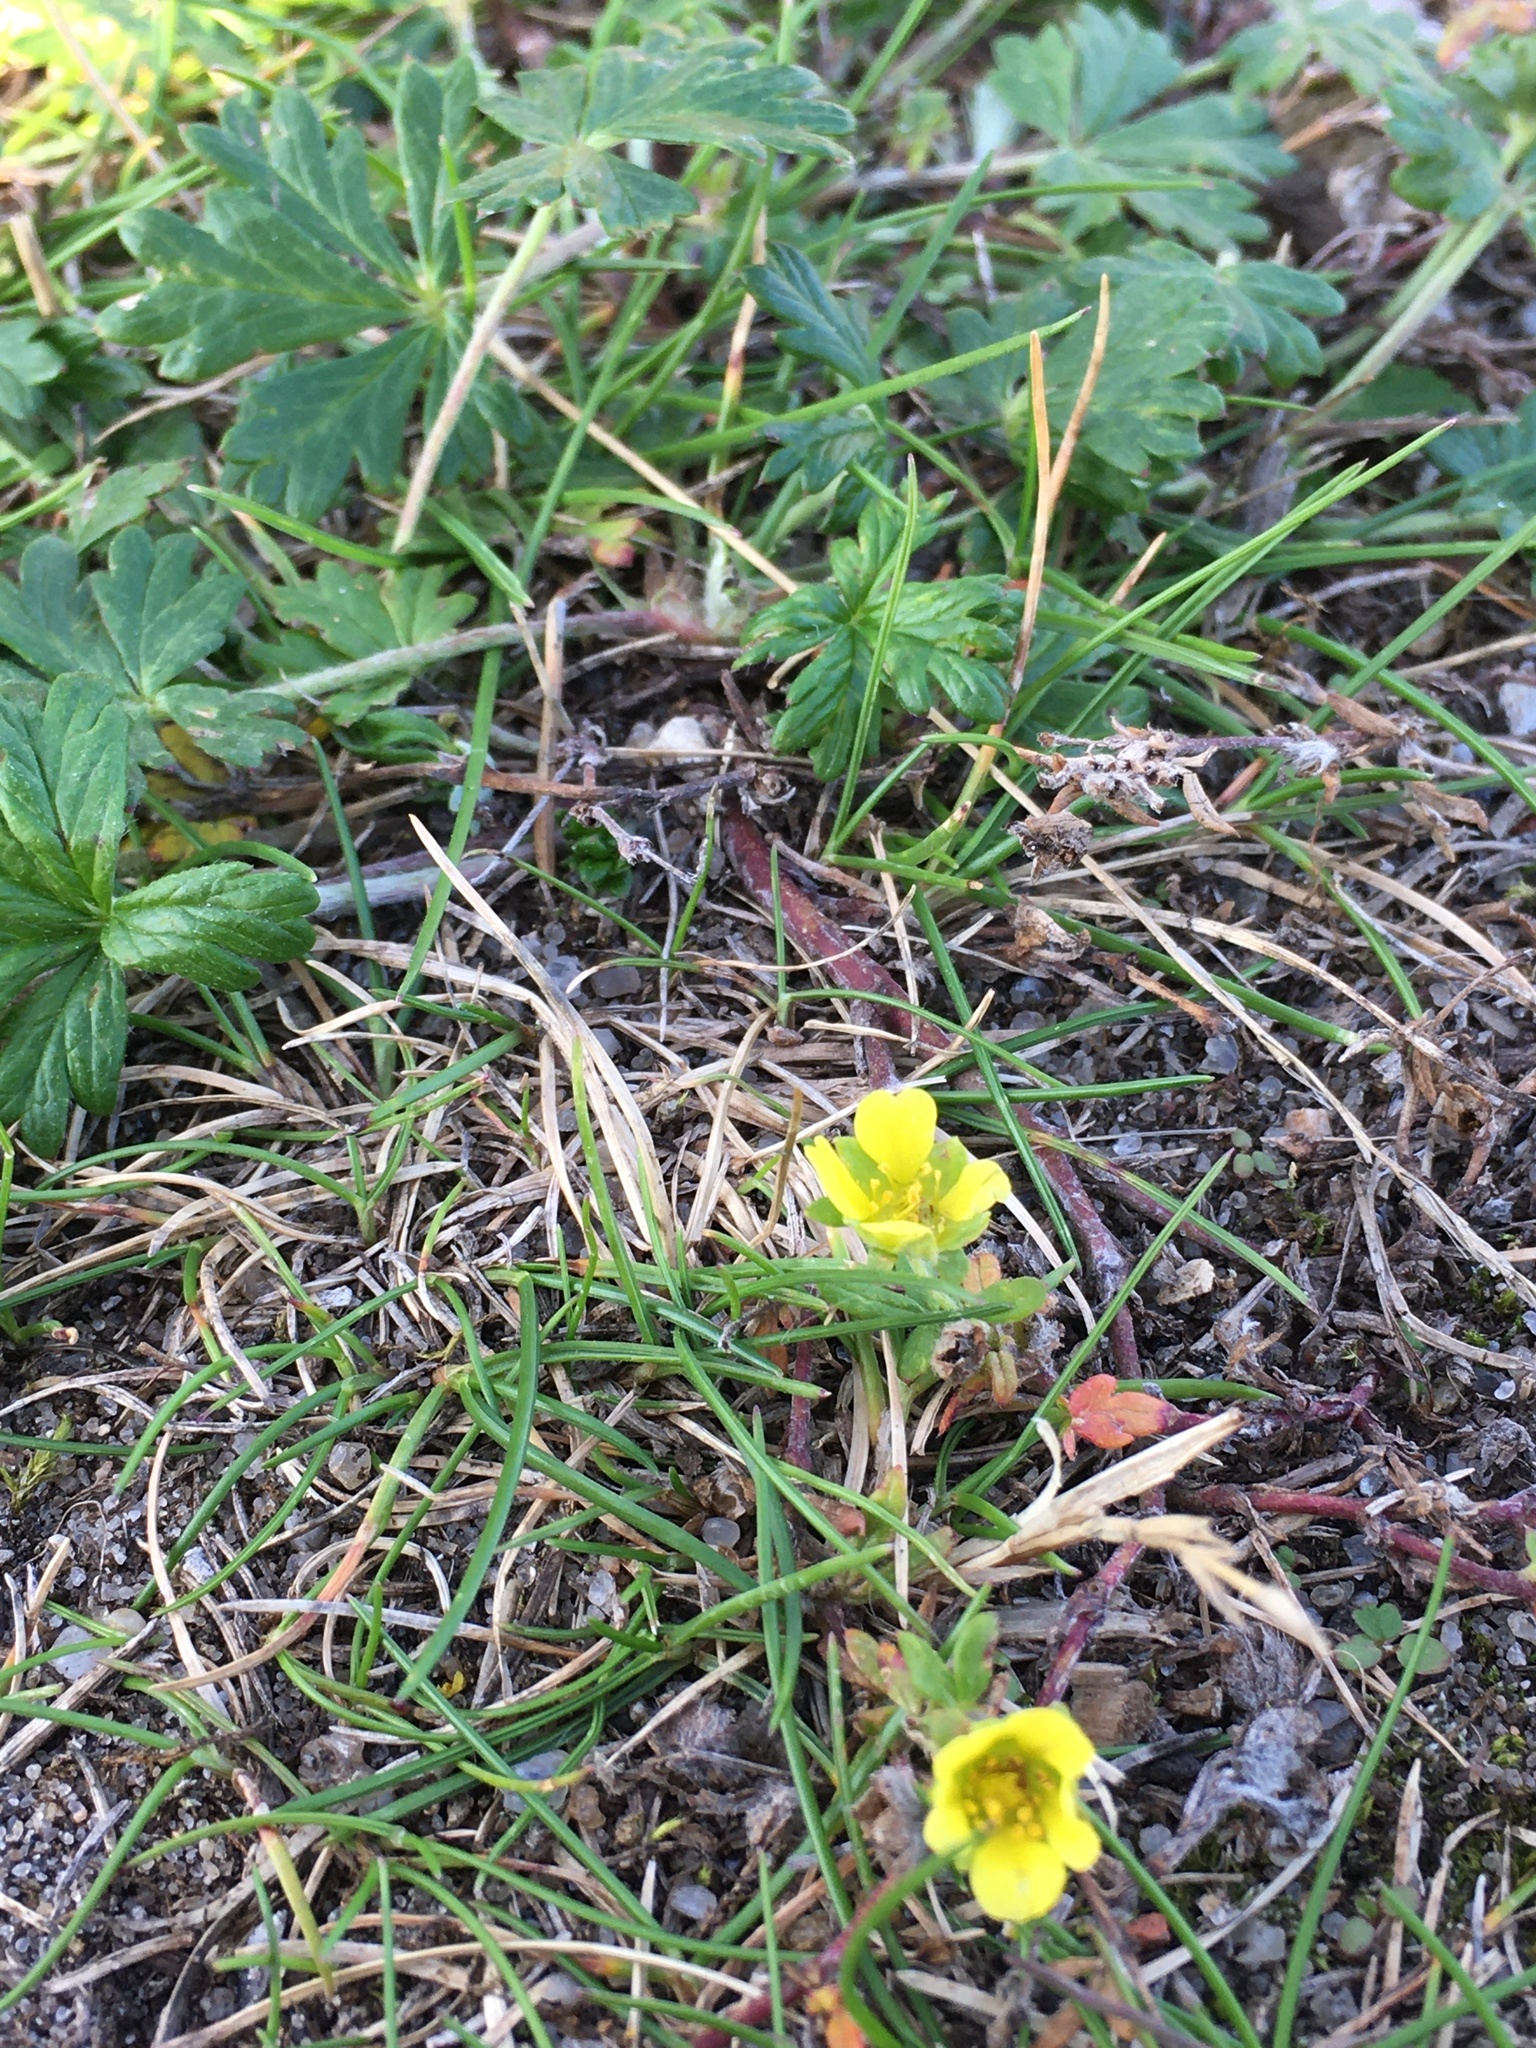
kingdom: Plantae
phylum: Tracheophyta
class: Magnoliopsida
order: Rosales
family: Rosaceae
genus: Potentilla
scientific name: Potentilla argentea
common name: Hoary cinquefoil
